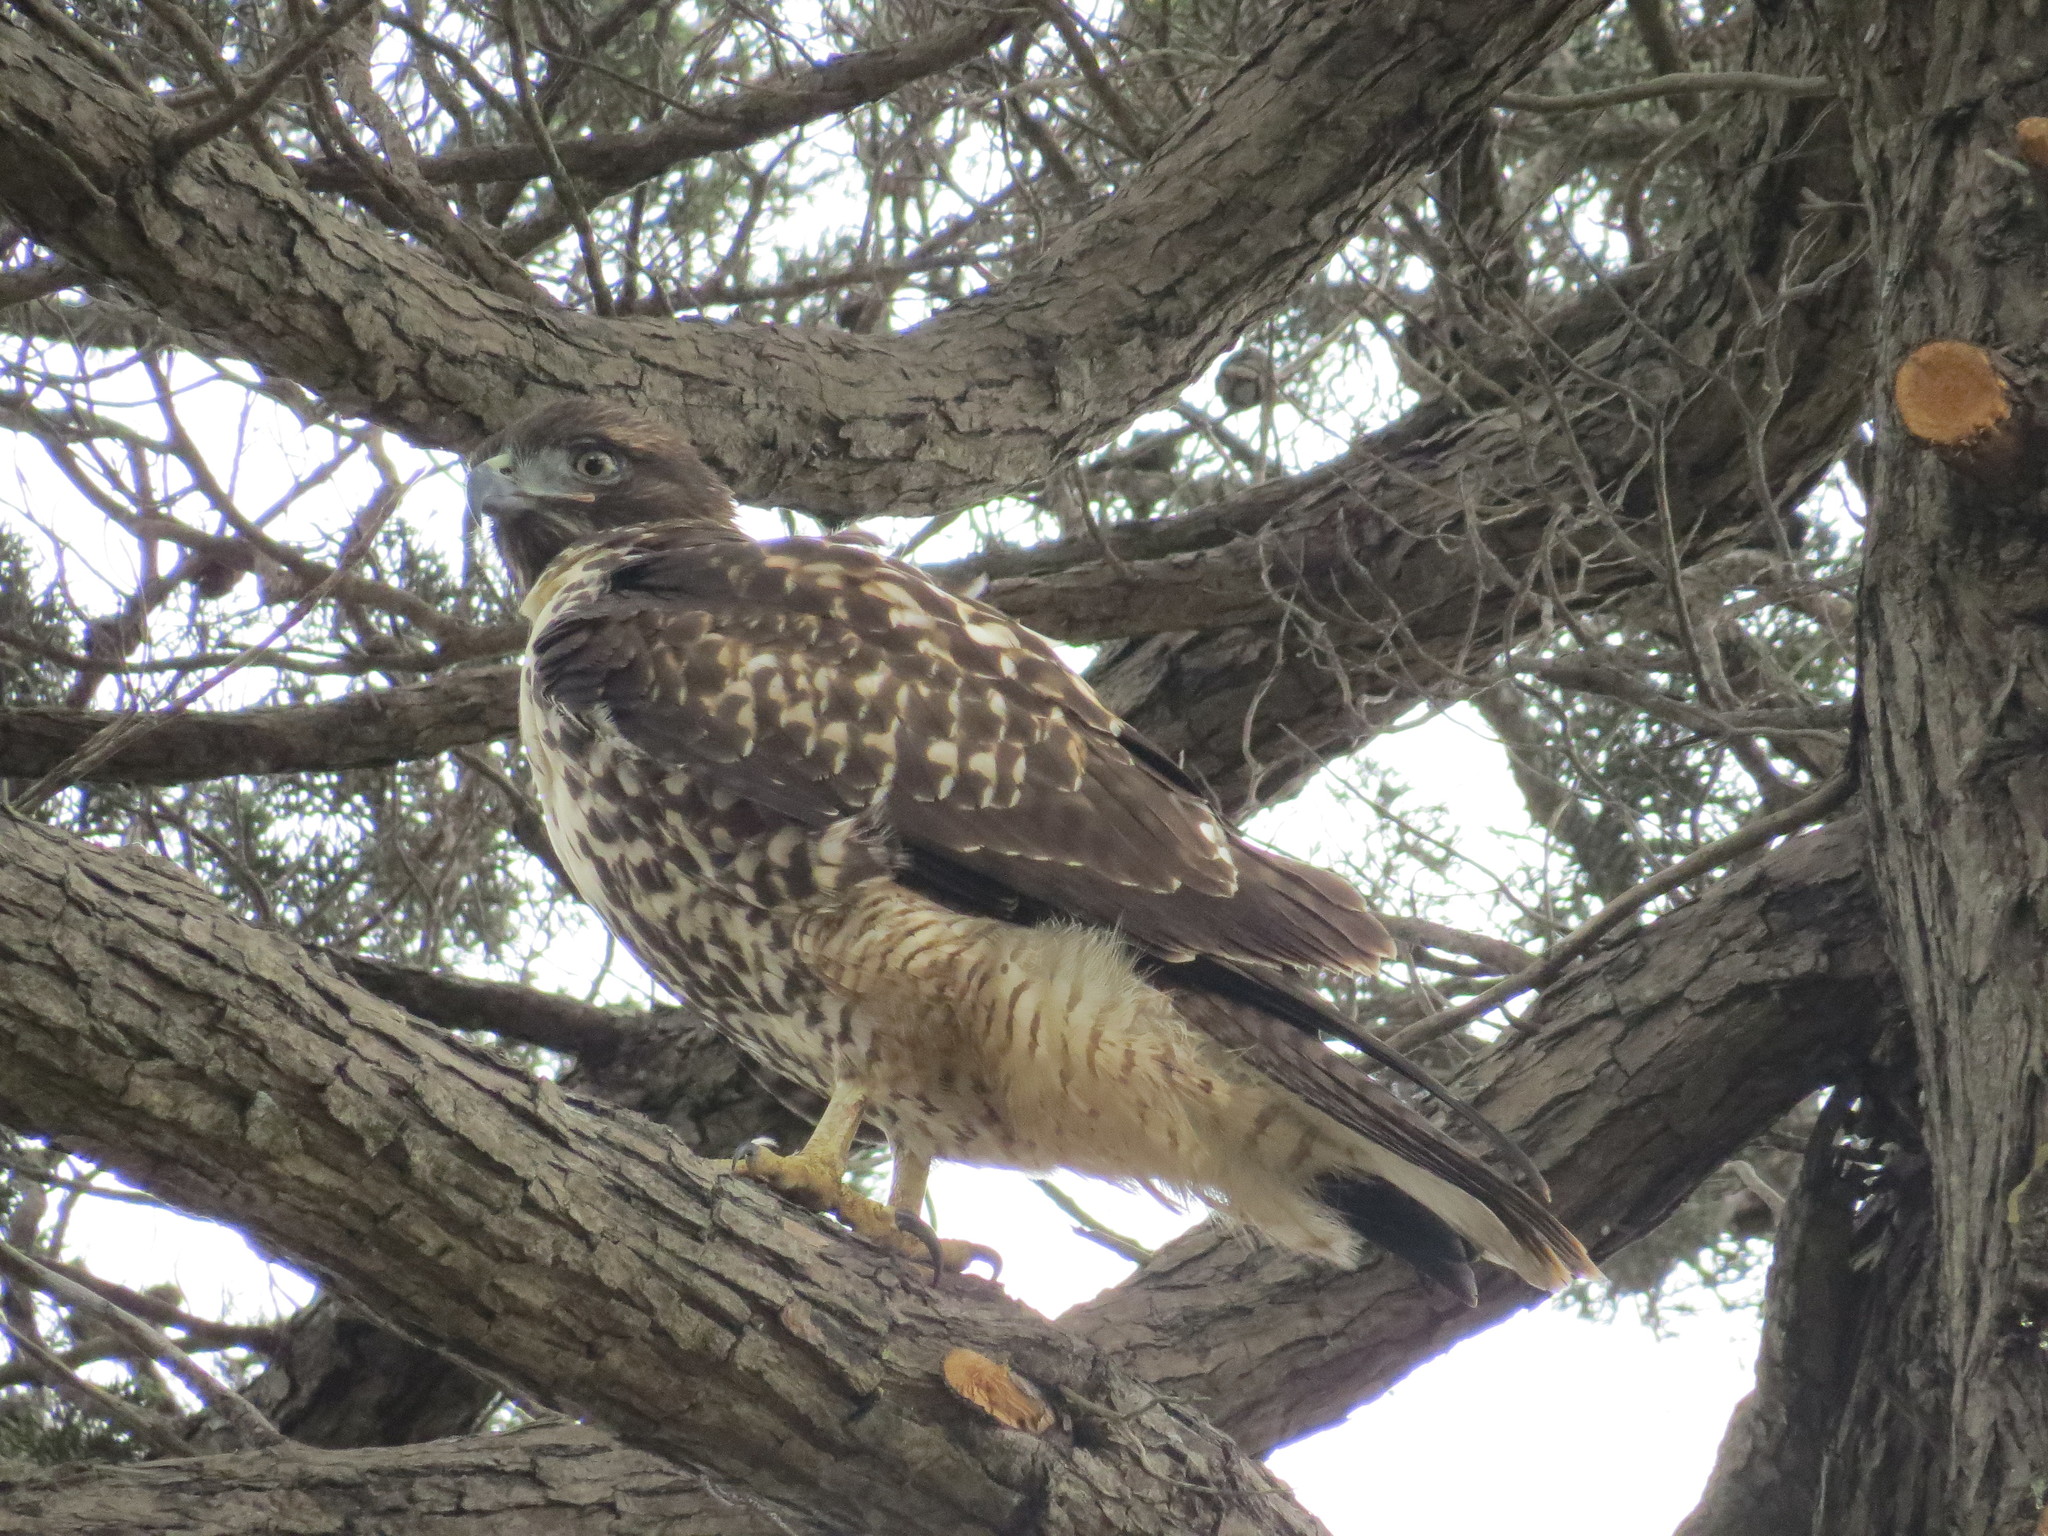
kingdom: Animalia
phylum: Chordata
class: Aves
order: Accipitriformes
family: Accipitridae
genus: Buteo
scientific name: Buteo jamaicensis
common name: Red-tailed hawk
